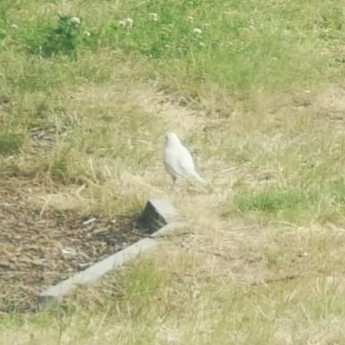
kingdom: Animalia
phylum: Chordata
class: Aves
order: Passeriformes
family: Turdidae
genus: Turdus
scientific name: Turdus merula
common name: Common blackbird
